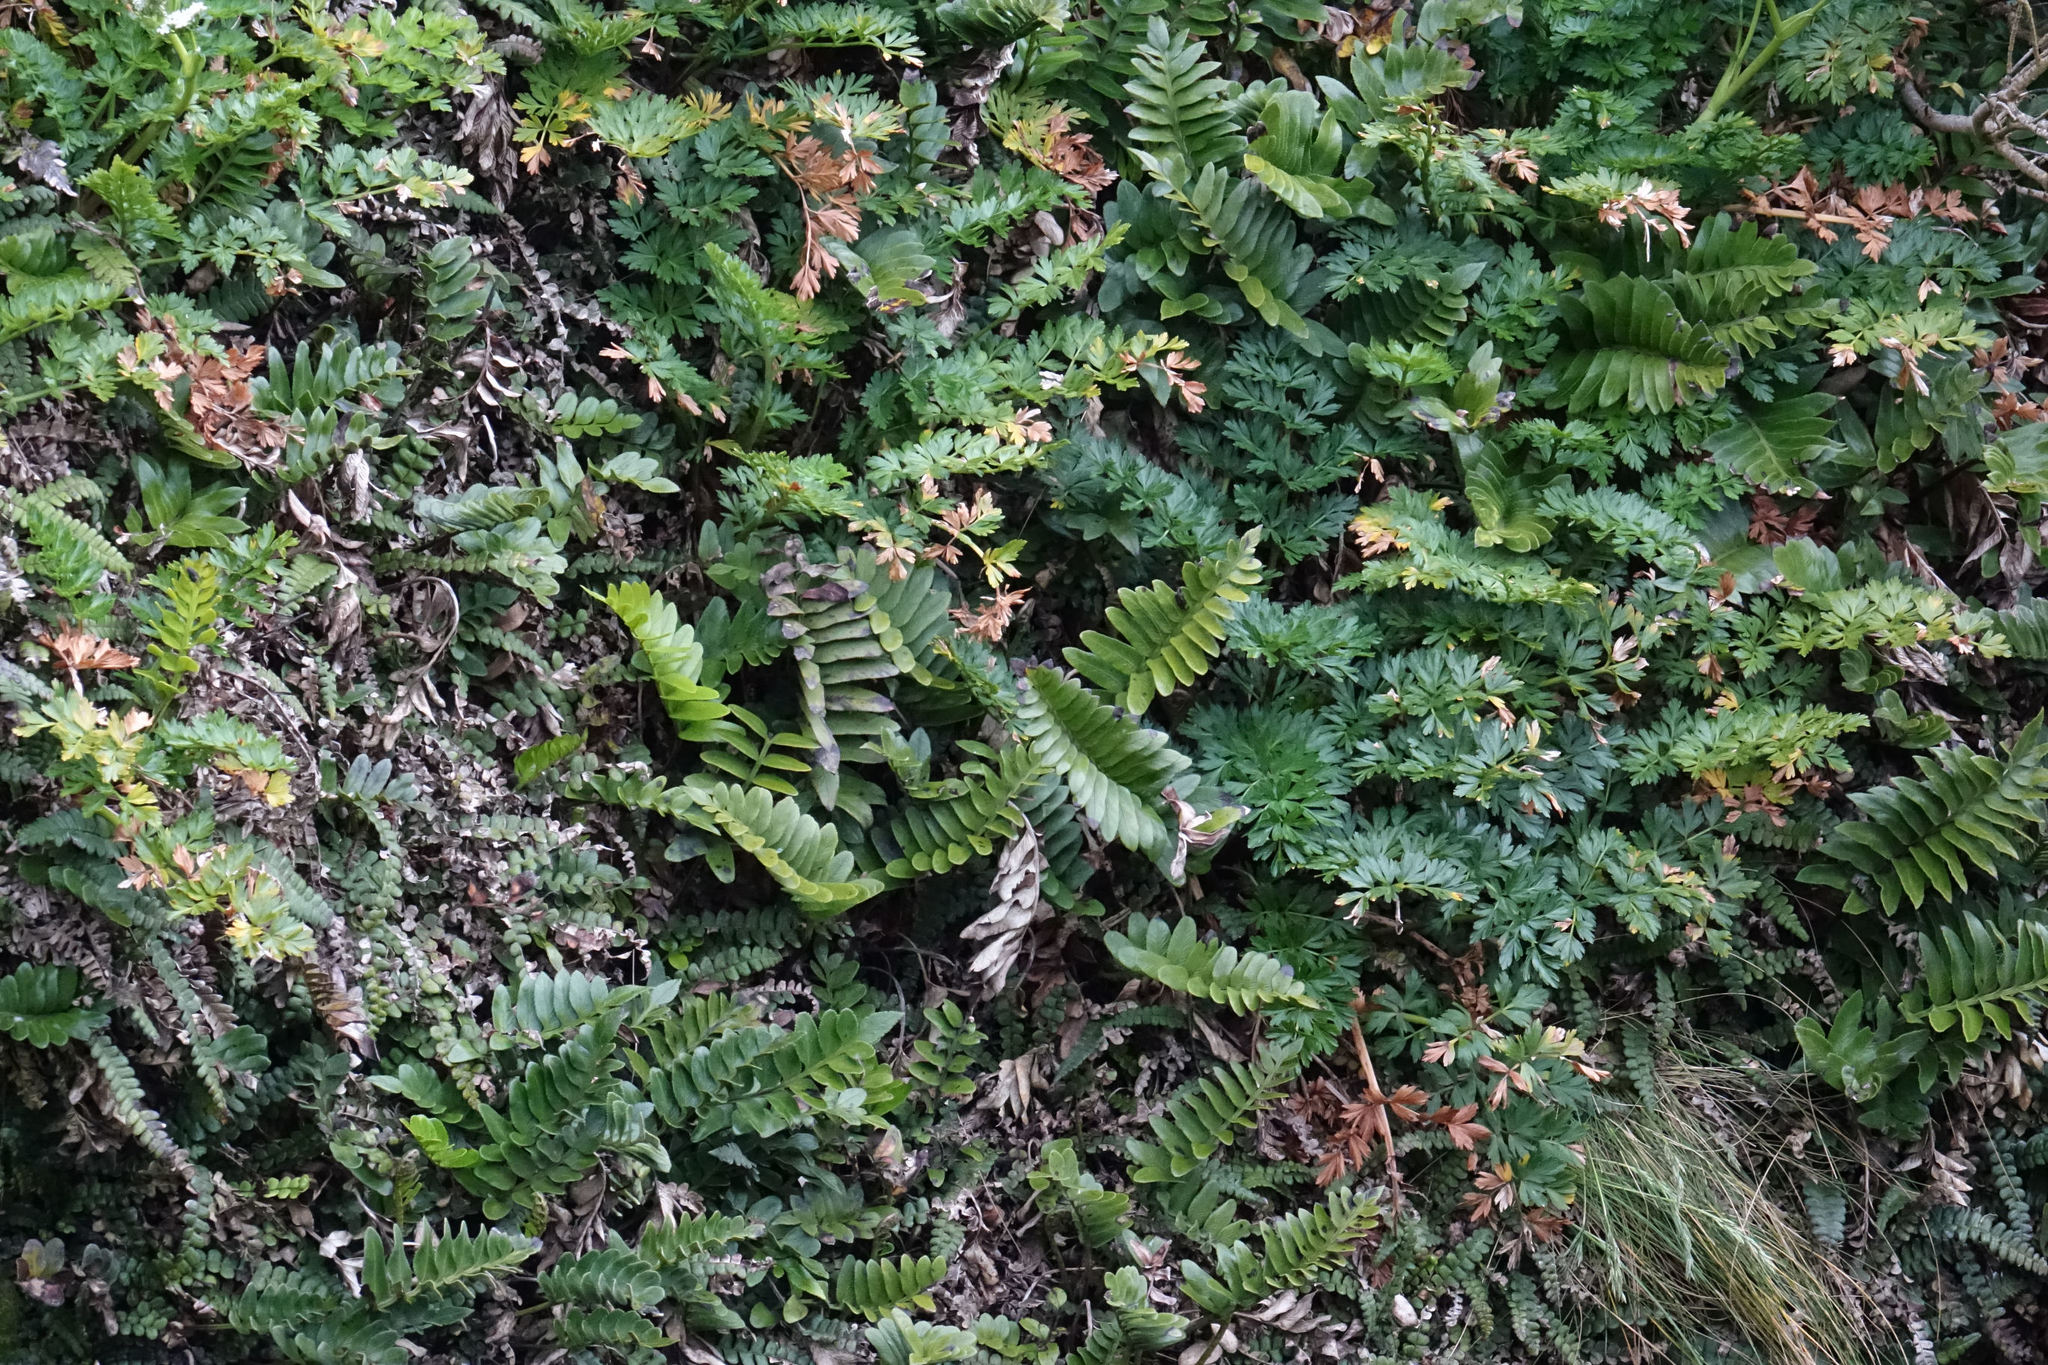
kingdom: Plantae
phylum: Tracheophyta
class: Polypodiopsida
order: Polypodiales
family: Aspleniaceae
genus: Asplenium
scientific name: Asplenium obtusatum
